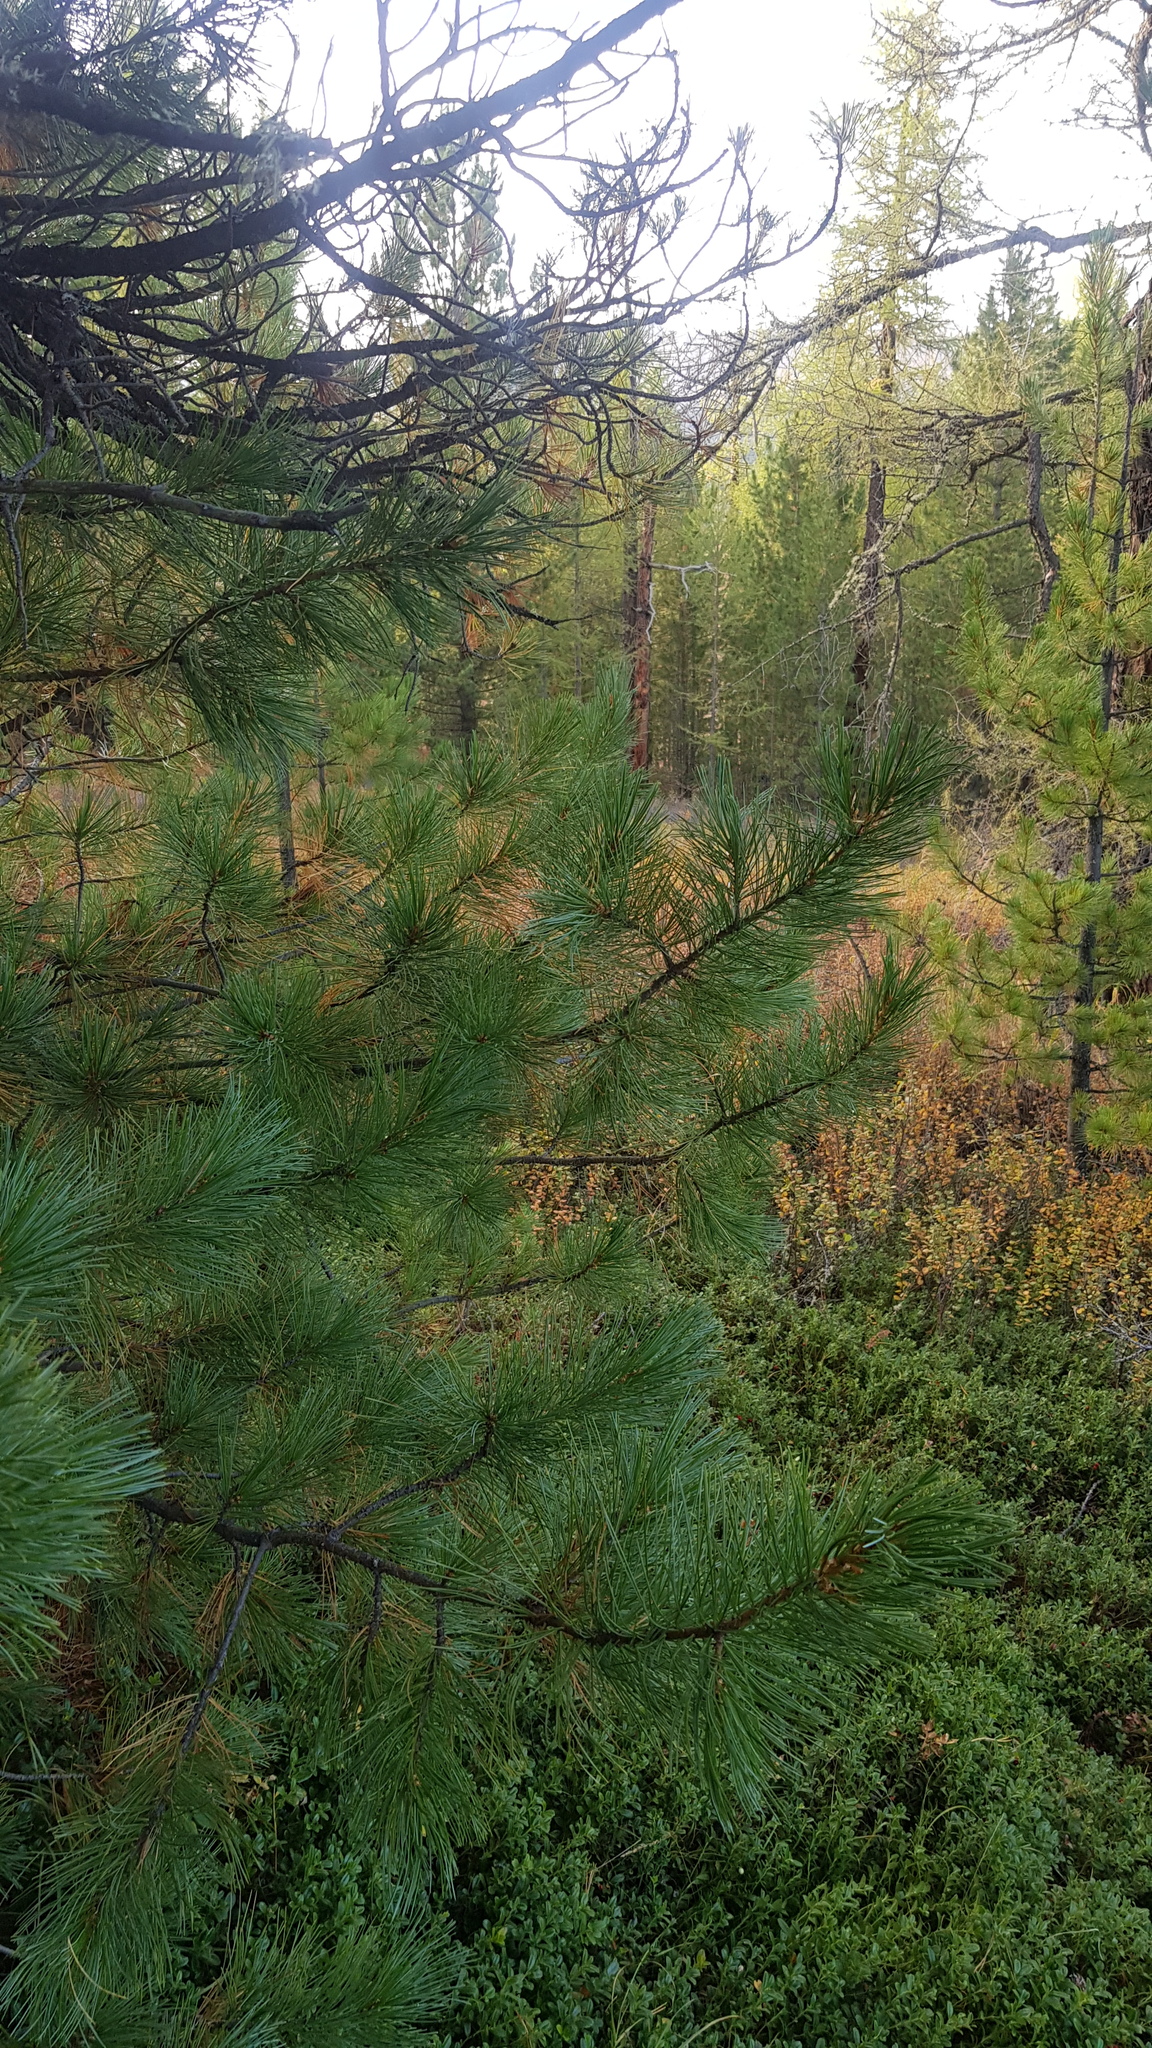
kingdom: Plantae
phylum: Tracheophyta
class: Pinopsida
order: Pinales
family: Pinaceae
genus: Pinus
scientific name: Pinus sibirica
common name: Siberian pine
